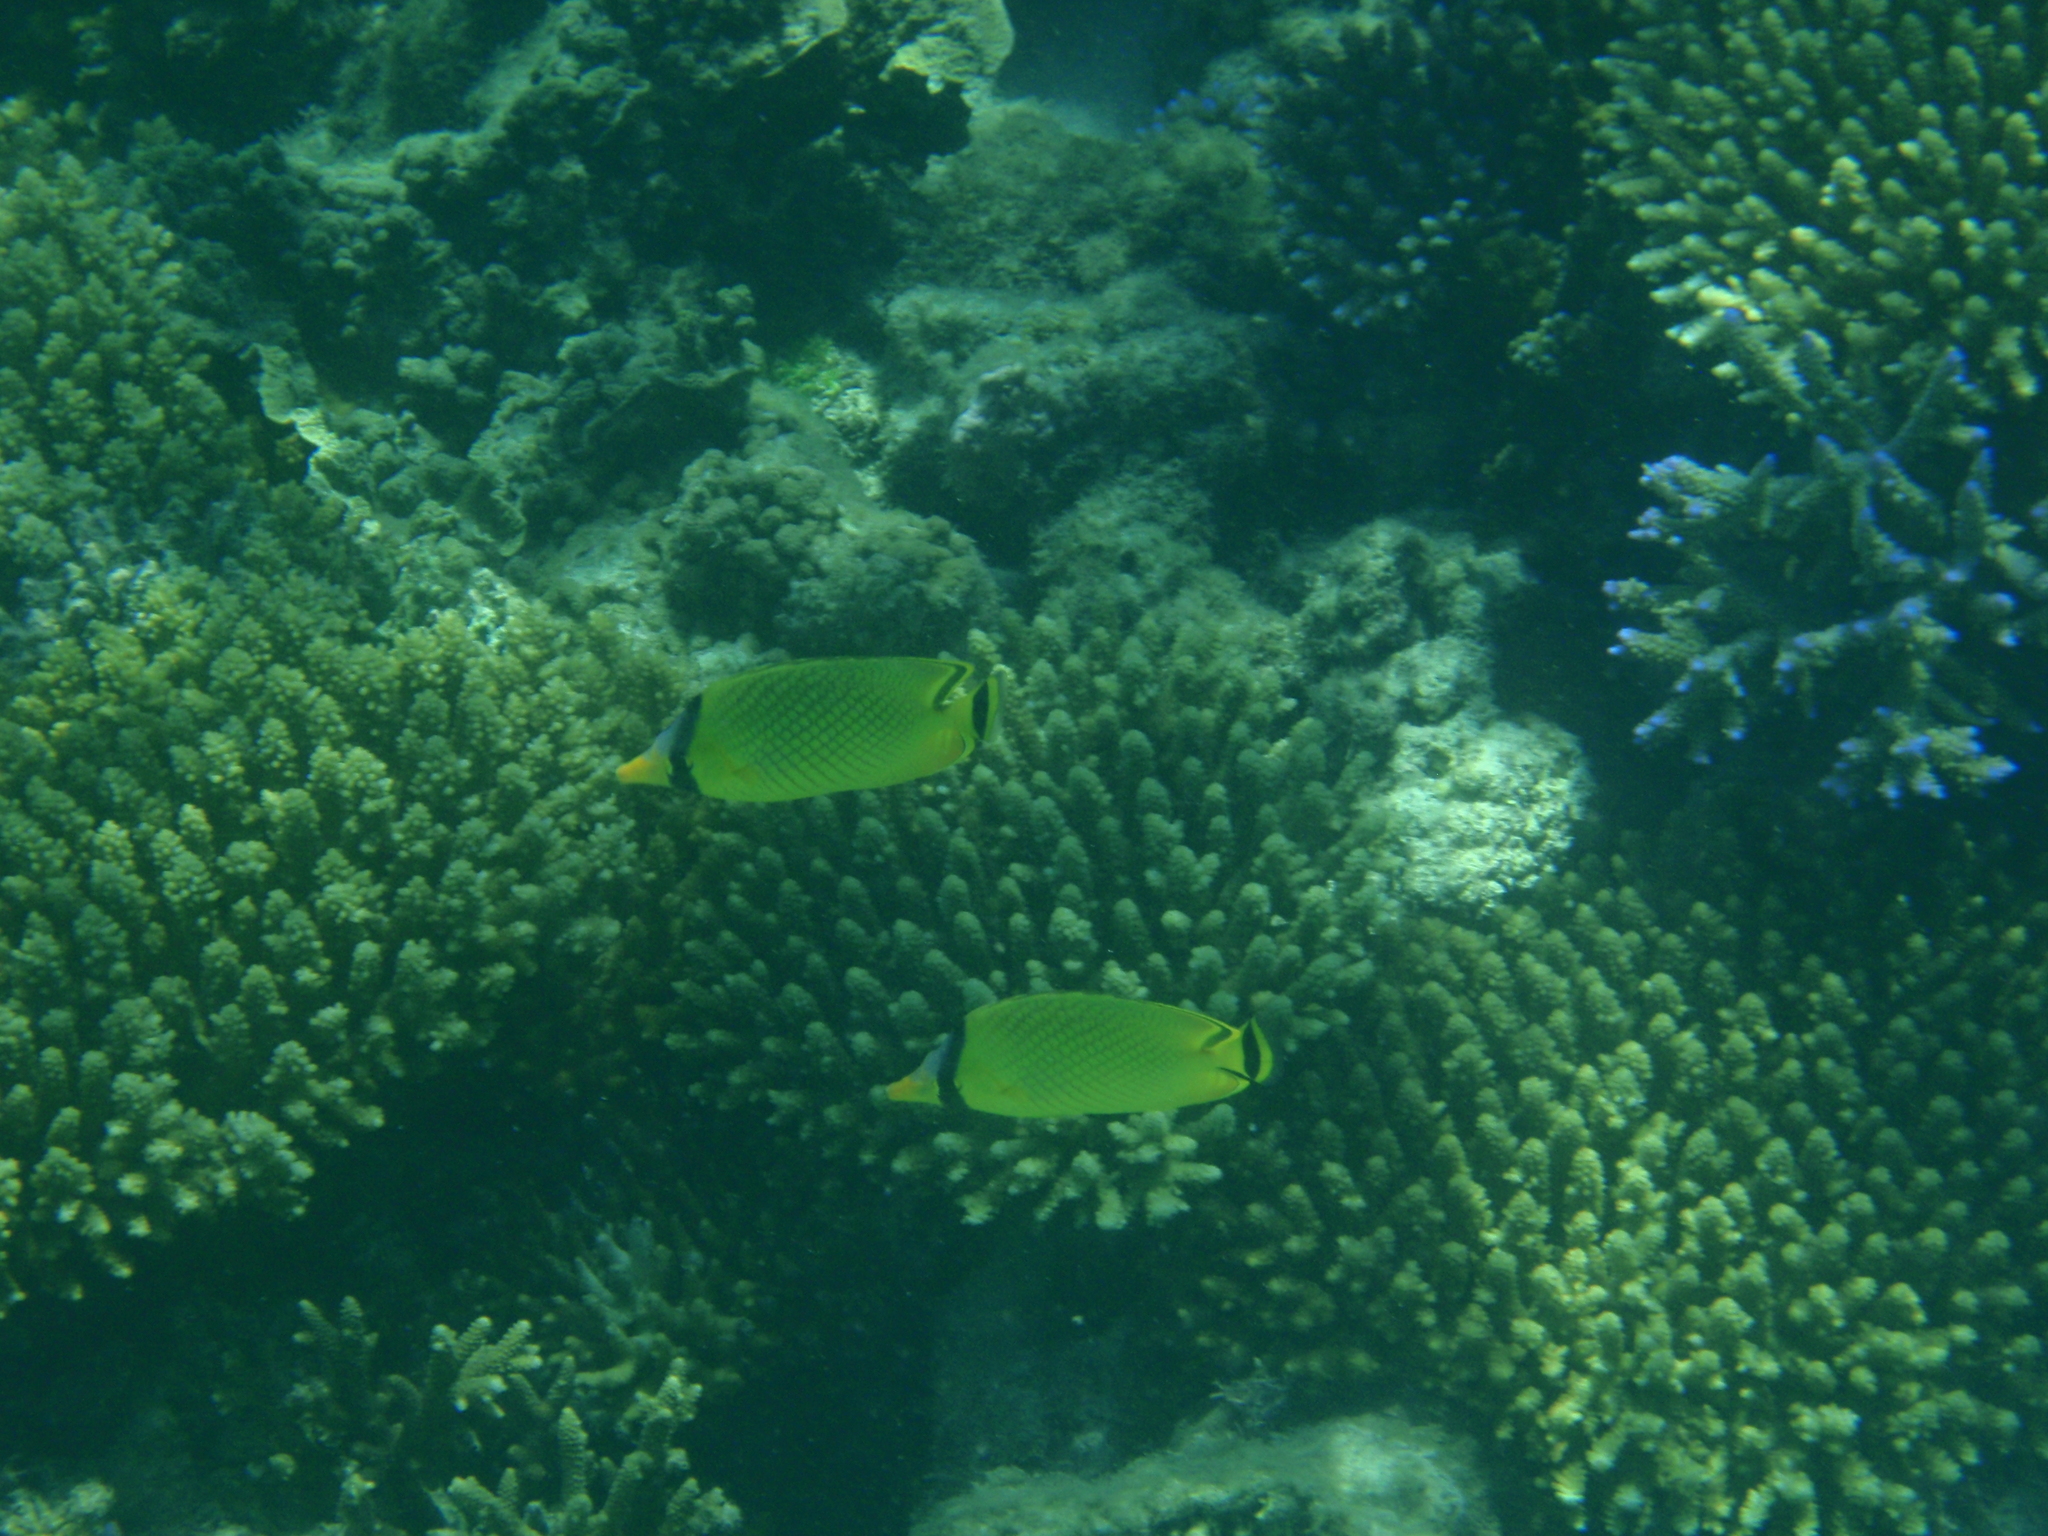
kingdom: Animalia
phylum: Chordata
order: Perciformes
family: Chaetodontidae
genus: Chaetodon
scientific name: Chaetodon rafflesii
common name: Latticed butterflyfish
